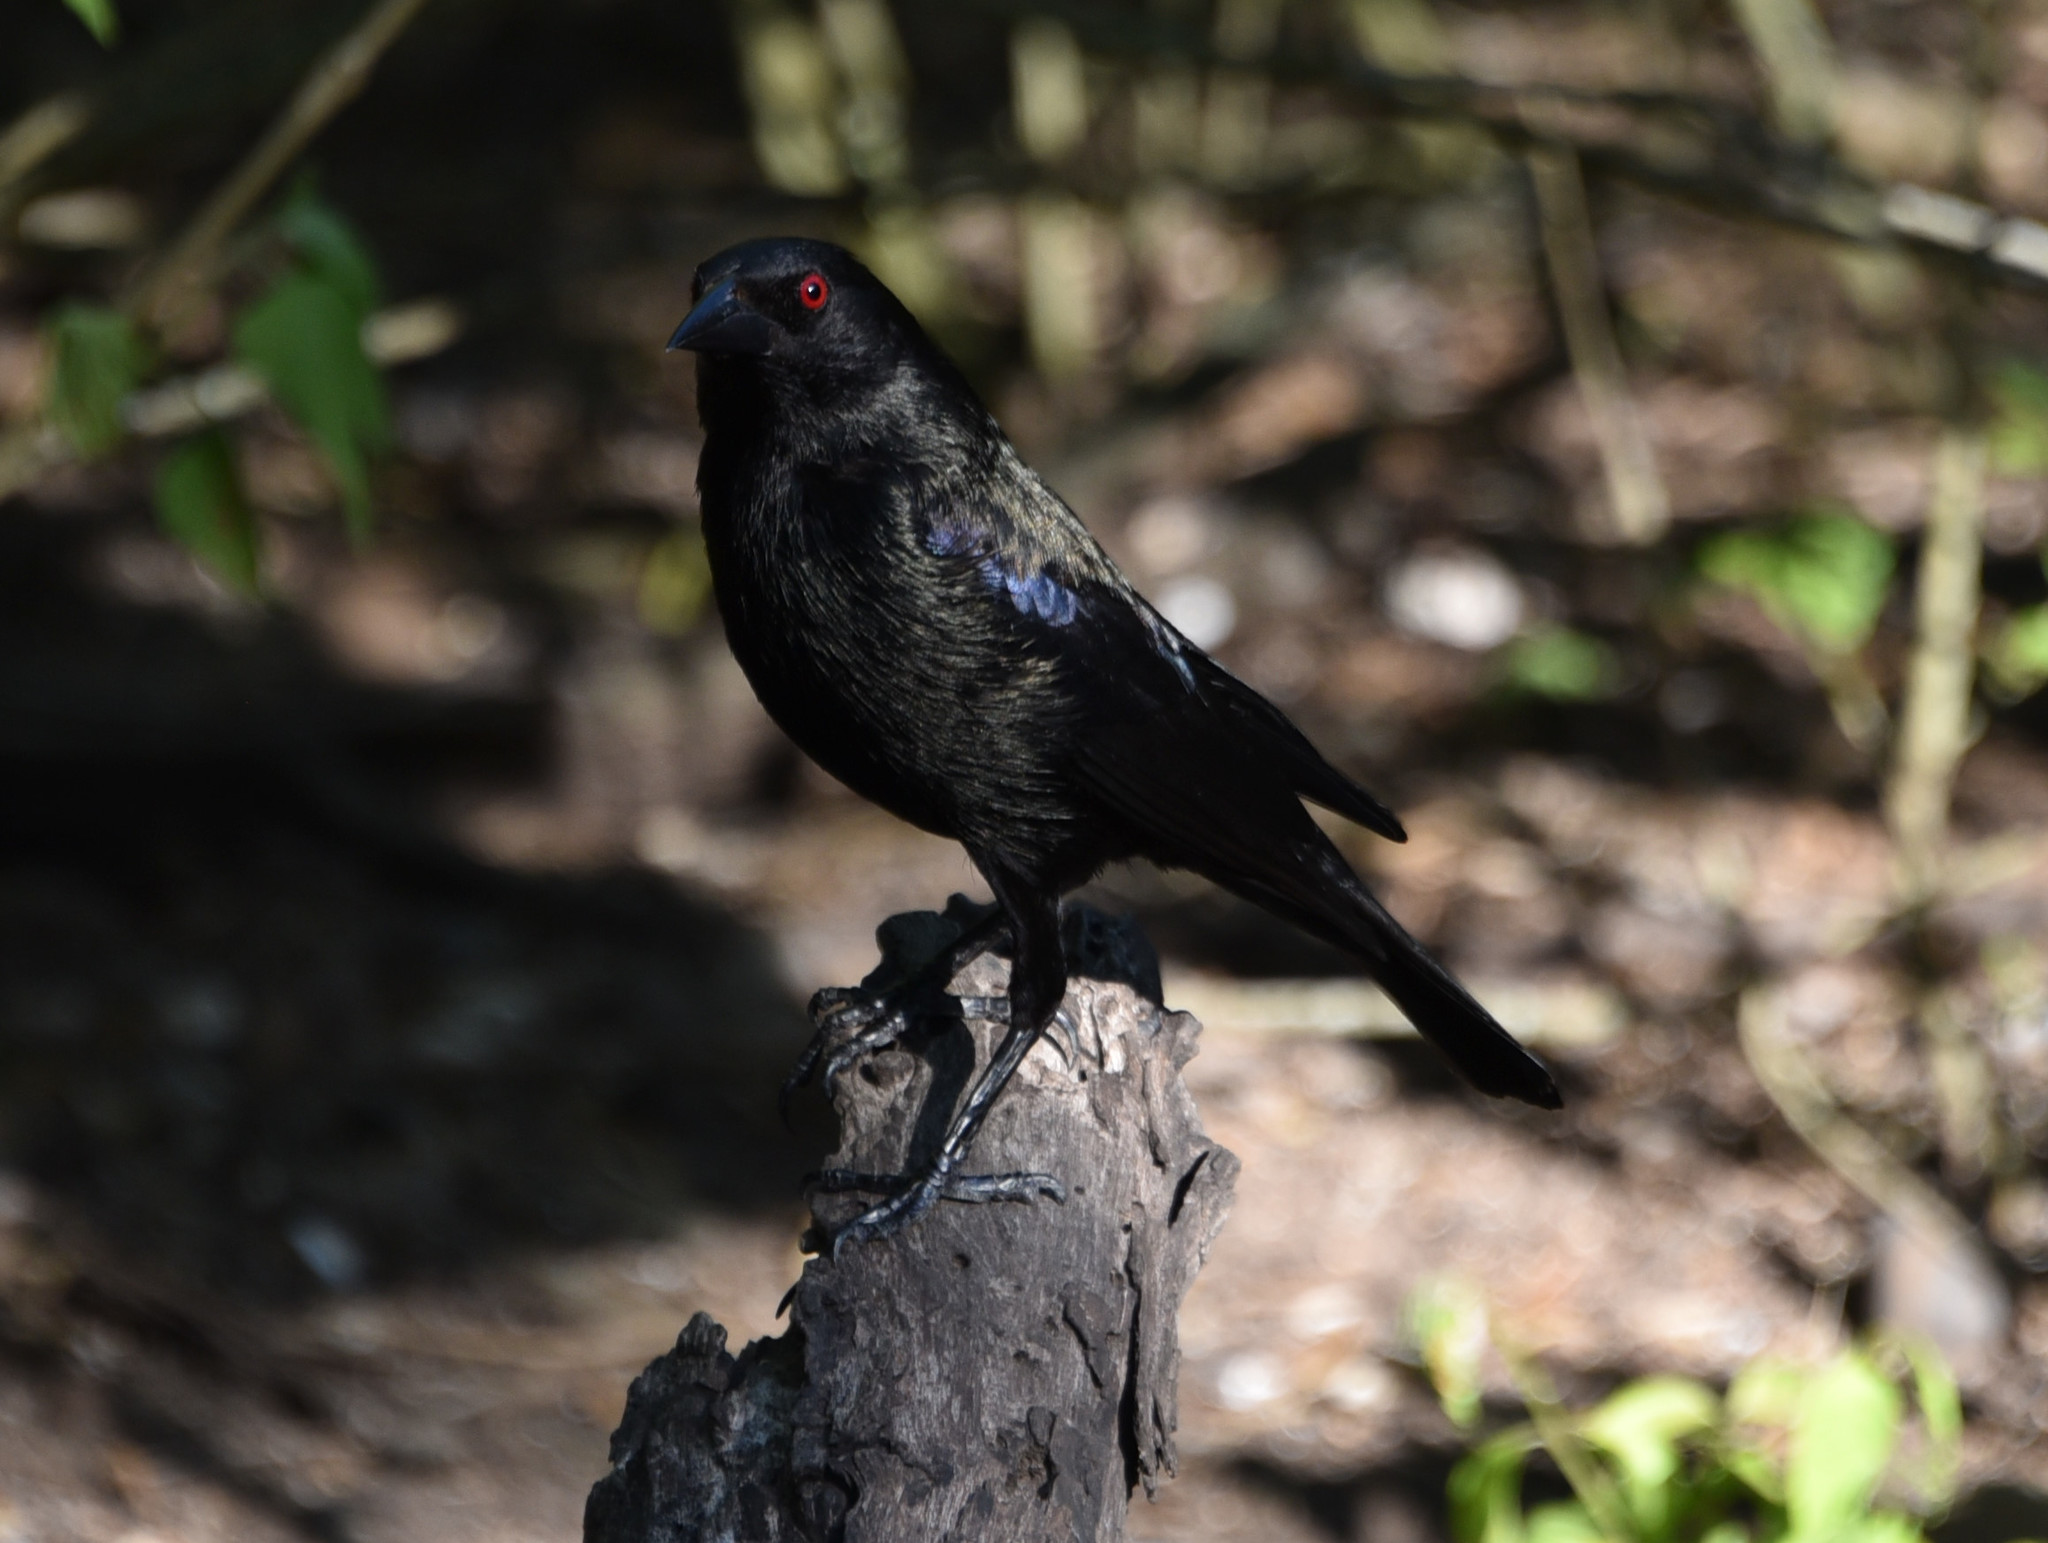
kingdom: Animalia
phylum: Chordata
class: Aves
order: Passeriformes
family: Icteridae
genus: Molothrus
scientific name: Molothrus aeneus
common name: Bronzed cowbird
